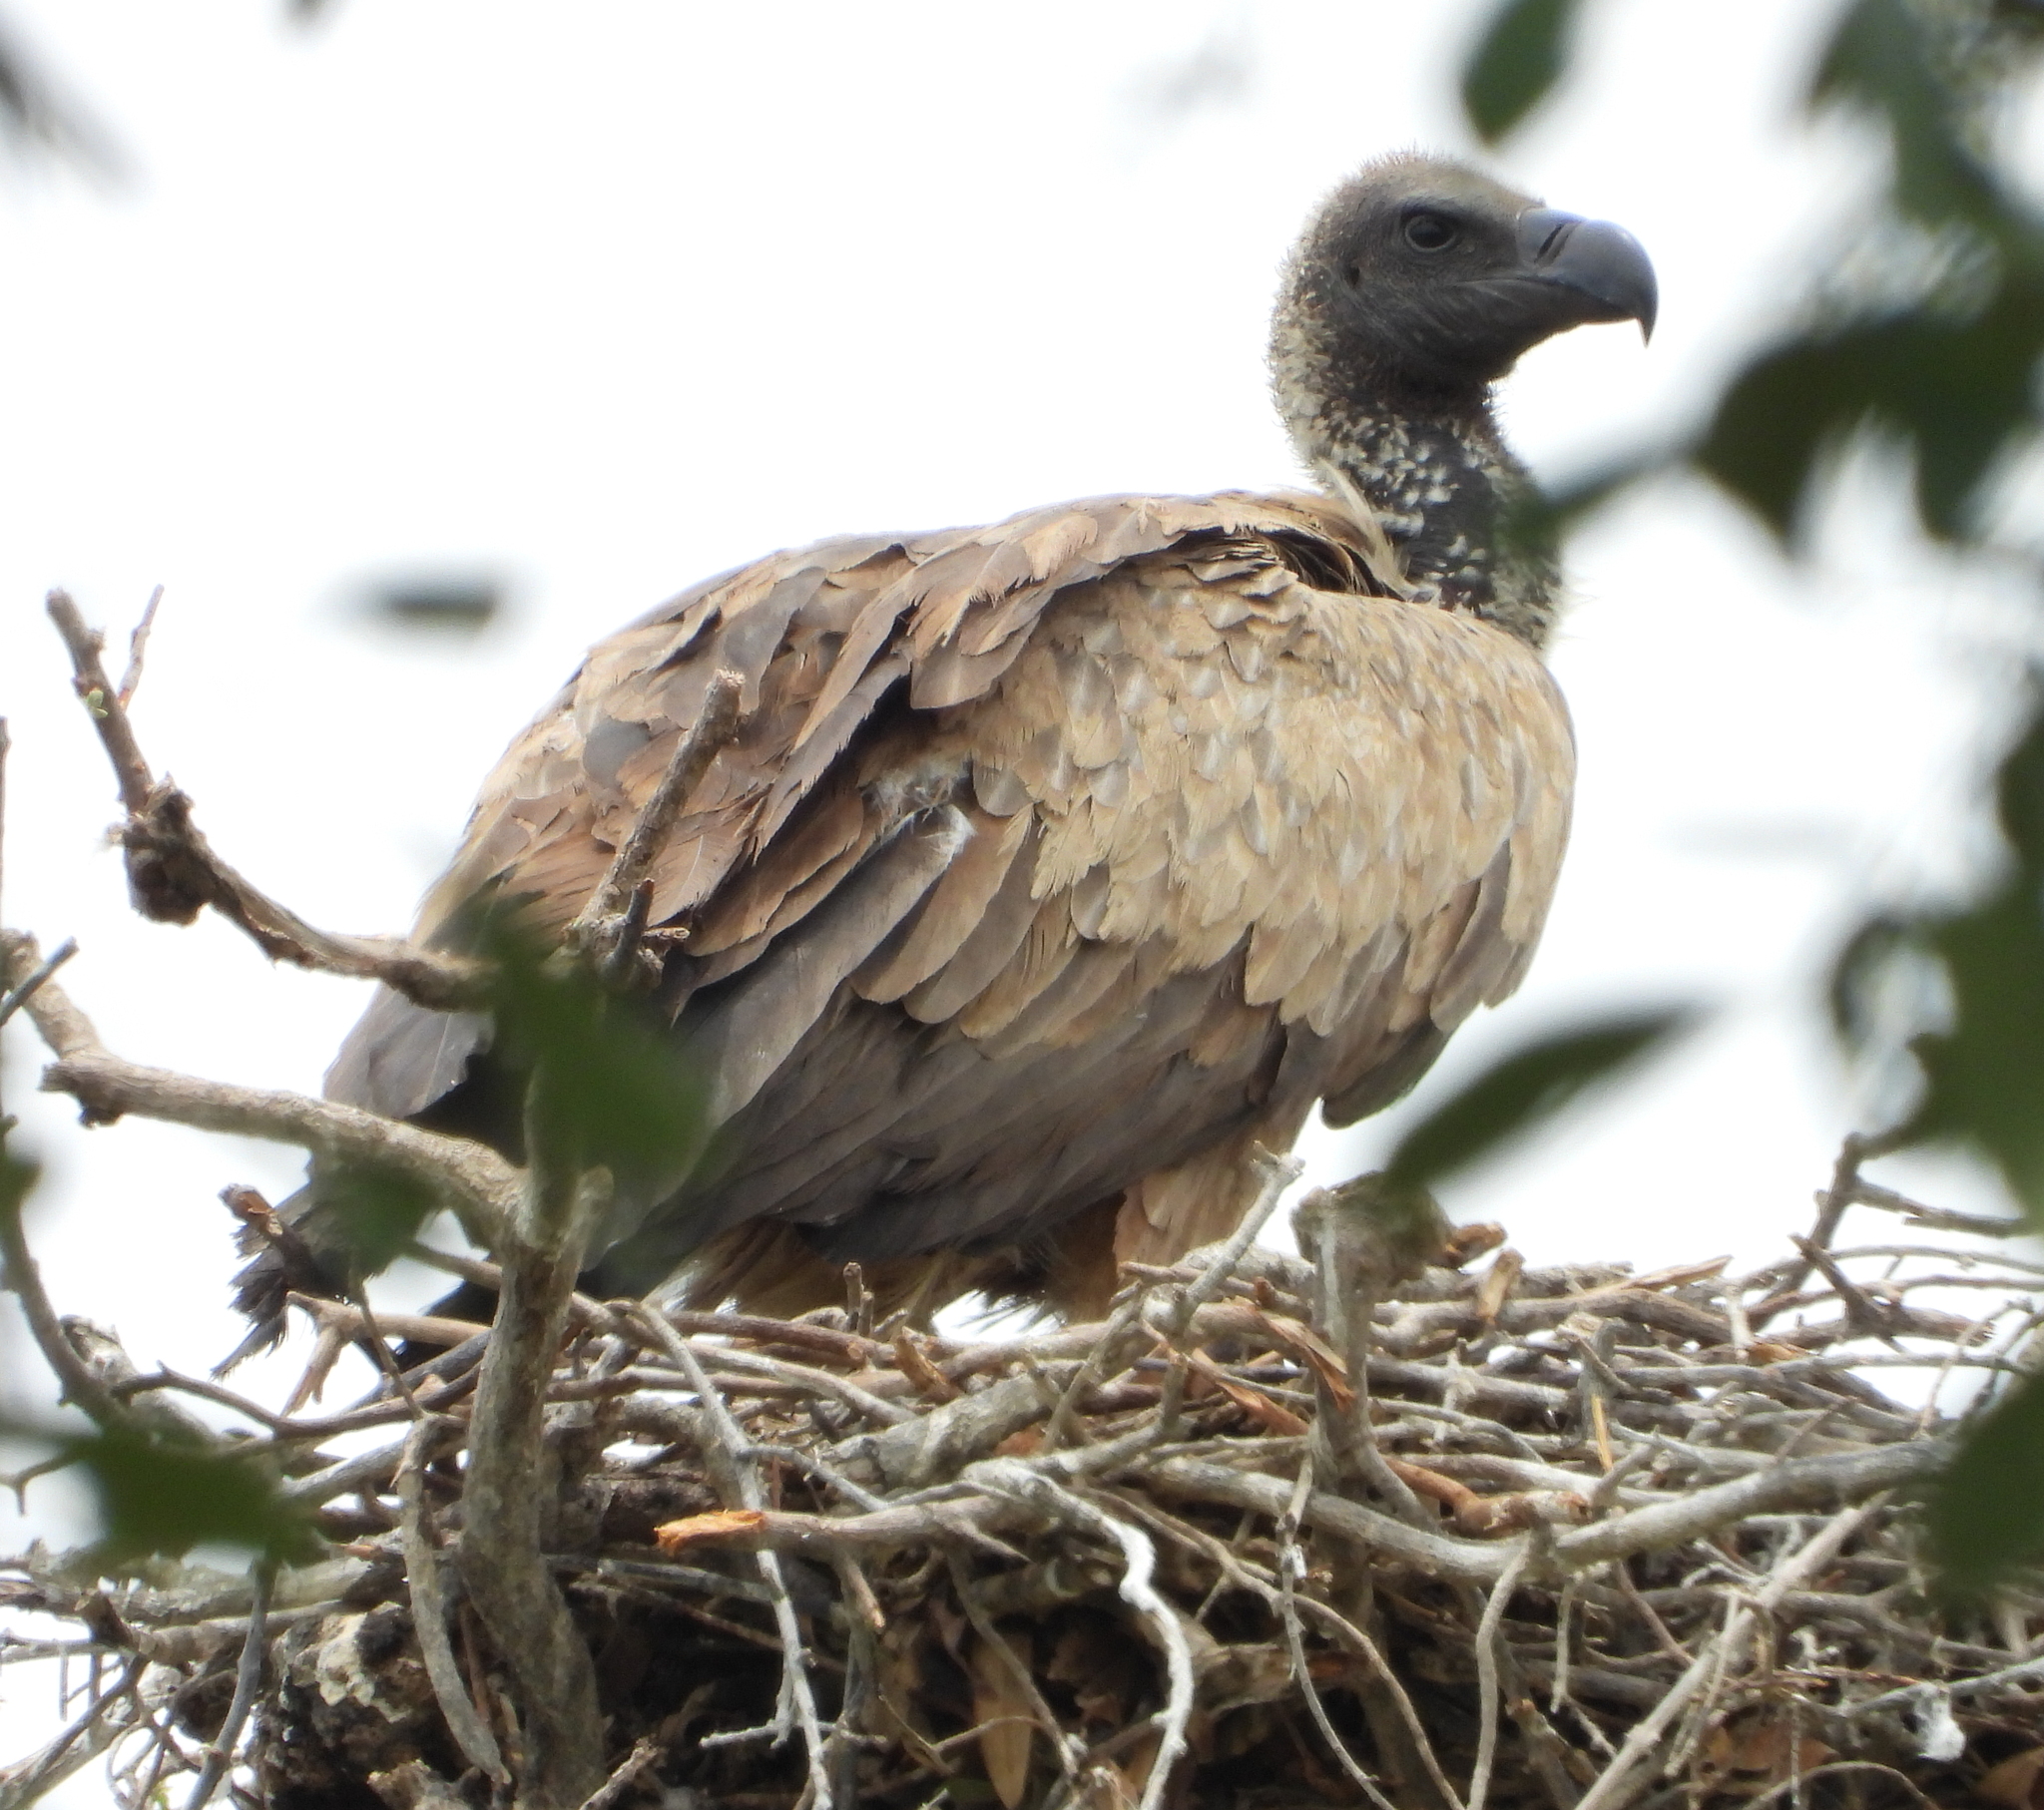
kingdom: Animalia
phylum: Chordata
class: Aves
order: Accipitriformes
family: Accipitridae
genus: Gyps
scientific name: Gyps africanus
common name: White-backed vulture
